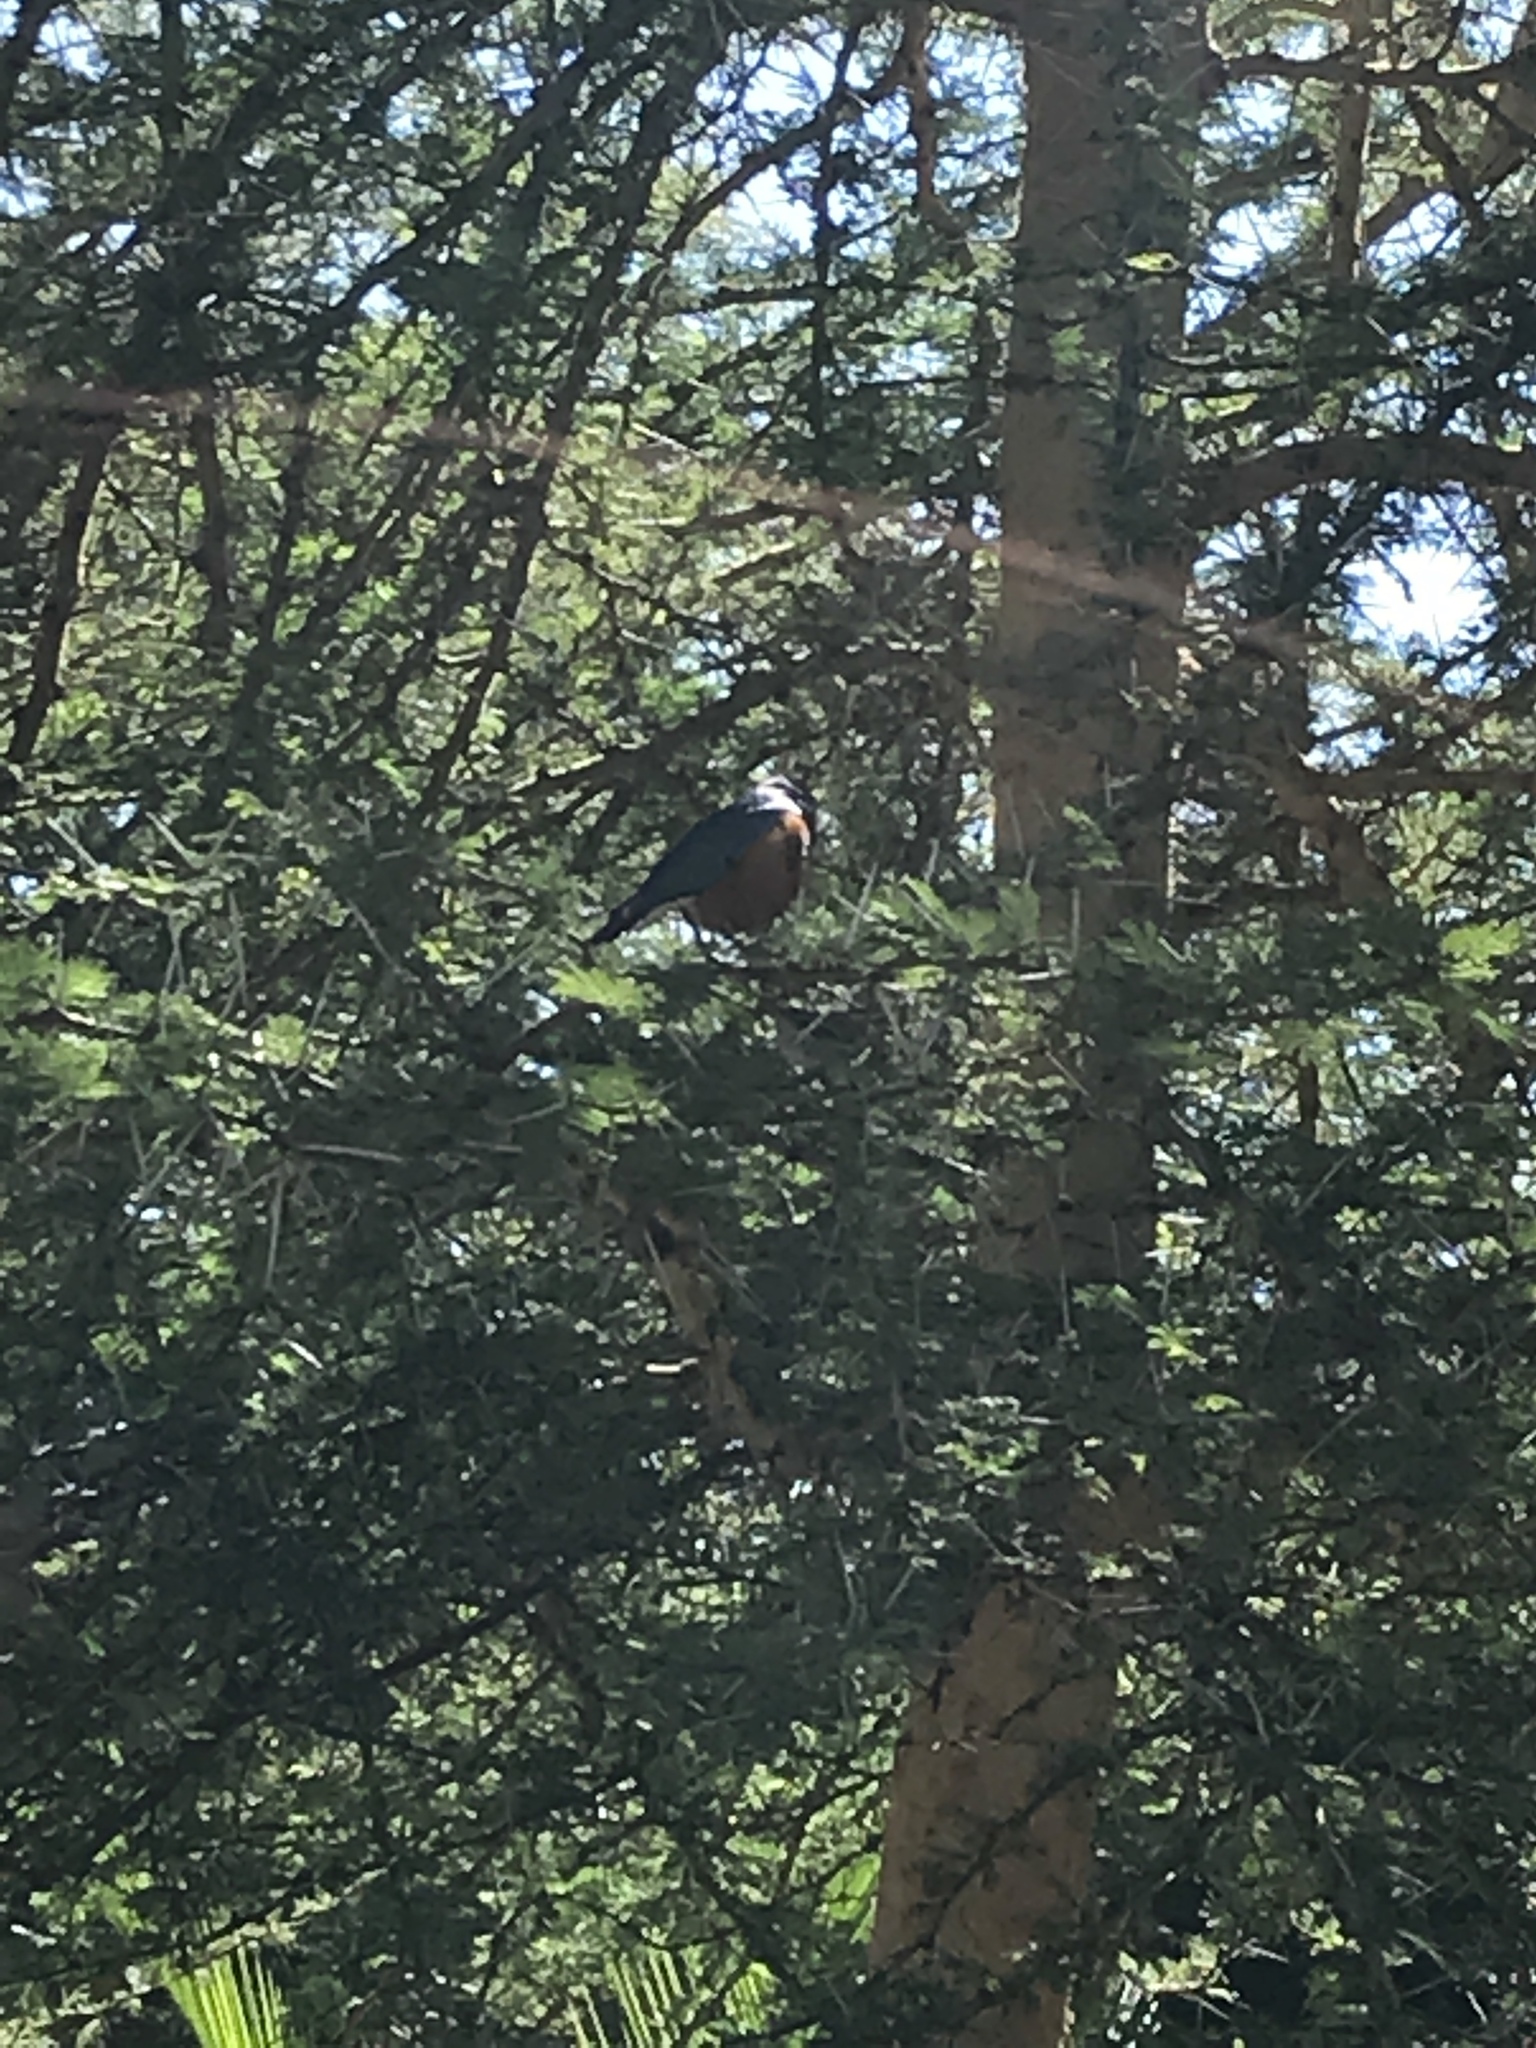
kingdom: Animalia
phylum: Chordata
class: Aves
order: Passeriformes
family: Sturnidae
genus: Lamprotornis
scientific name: Lamprotornis superbus
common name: Superb starling
